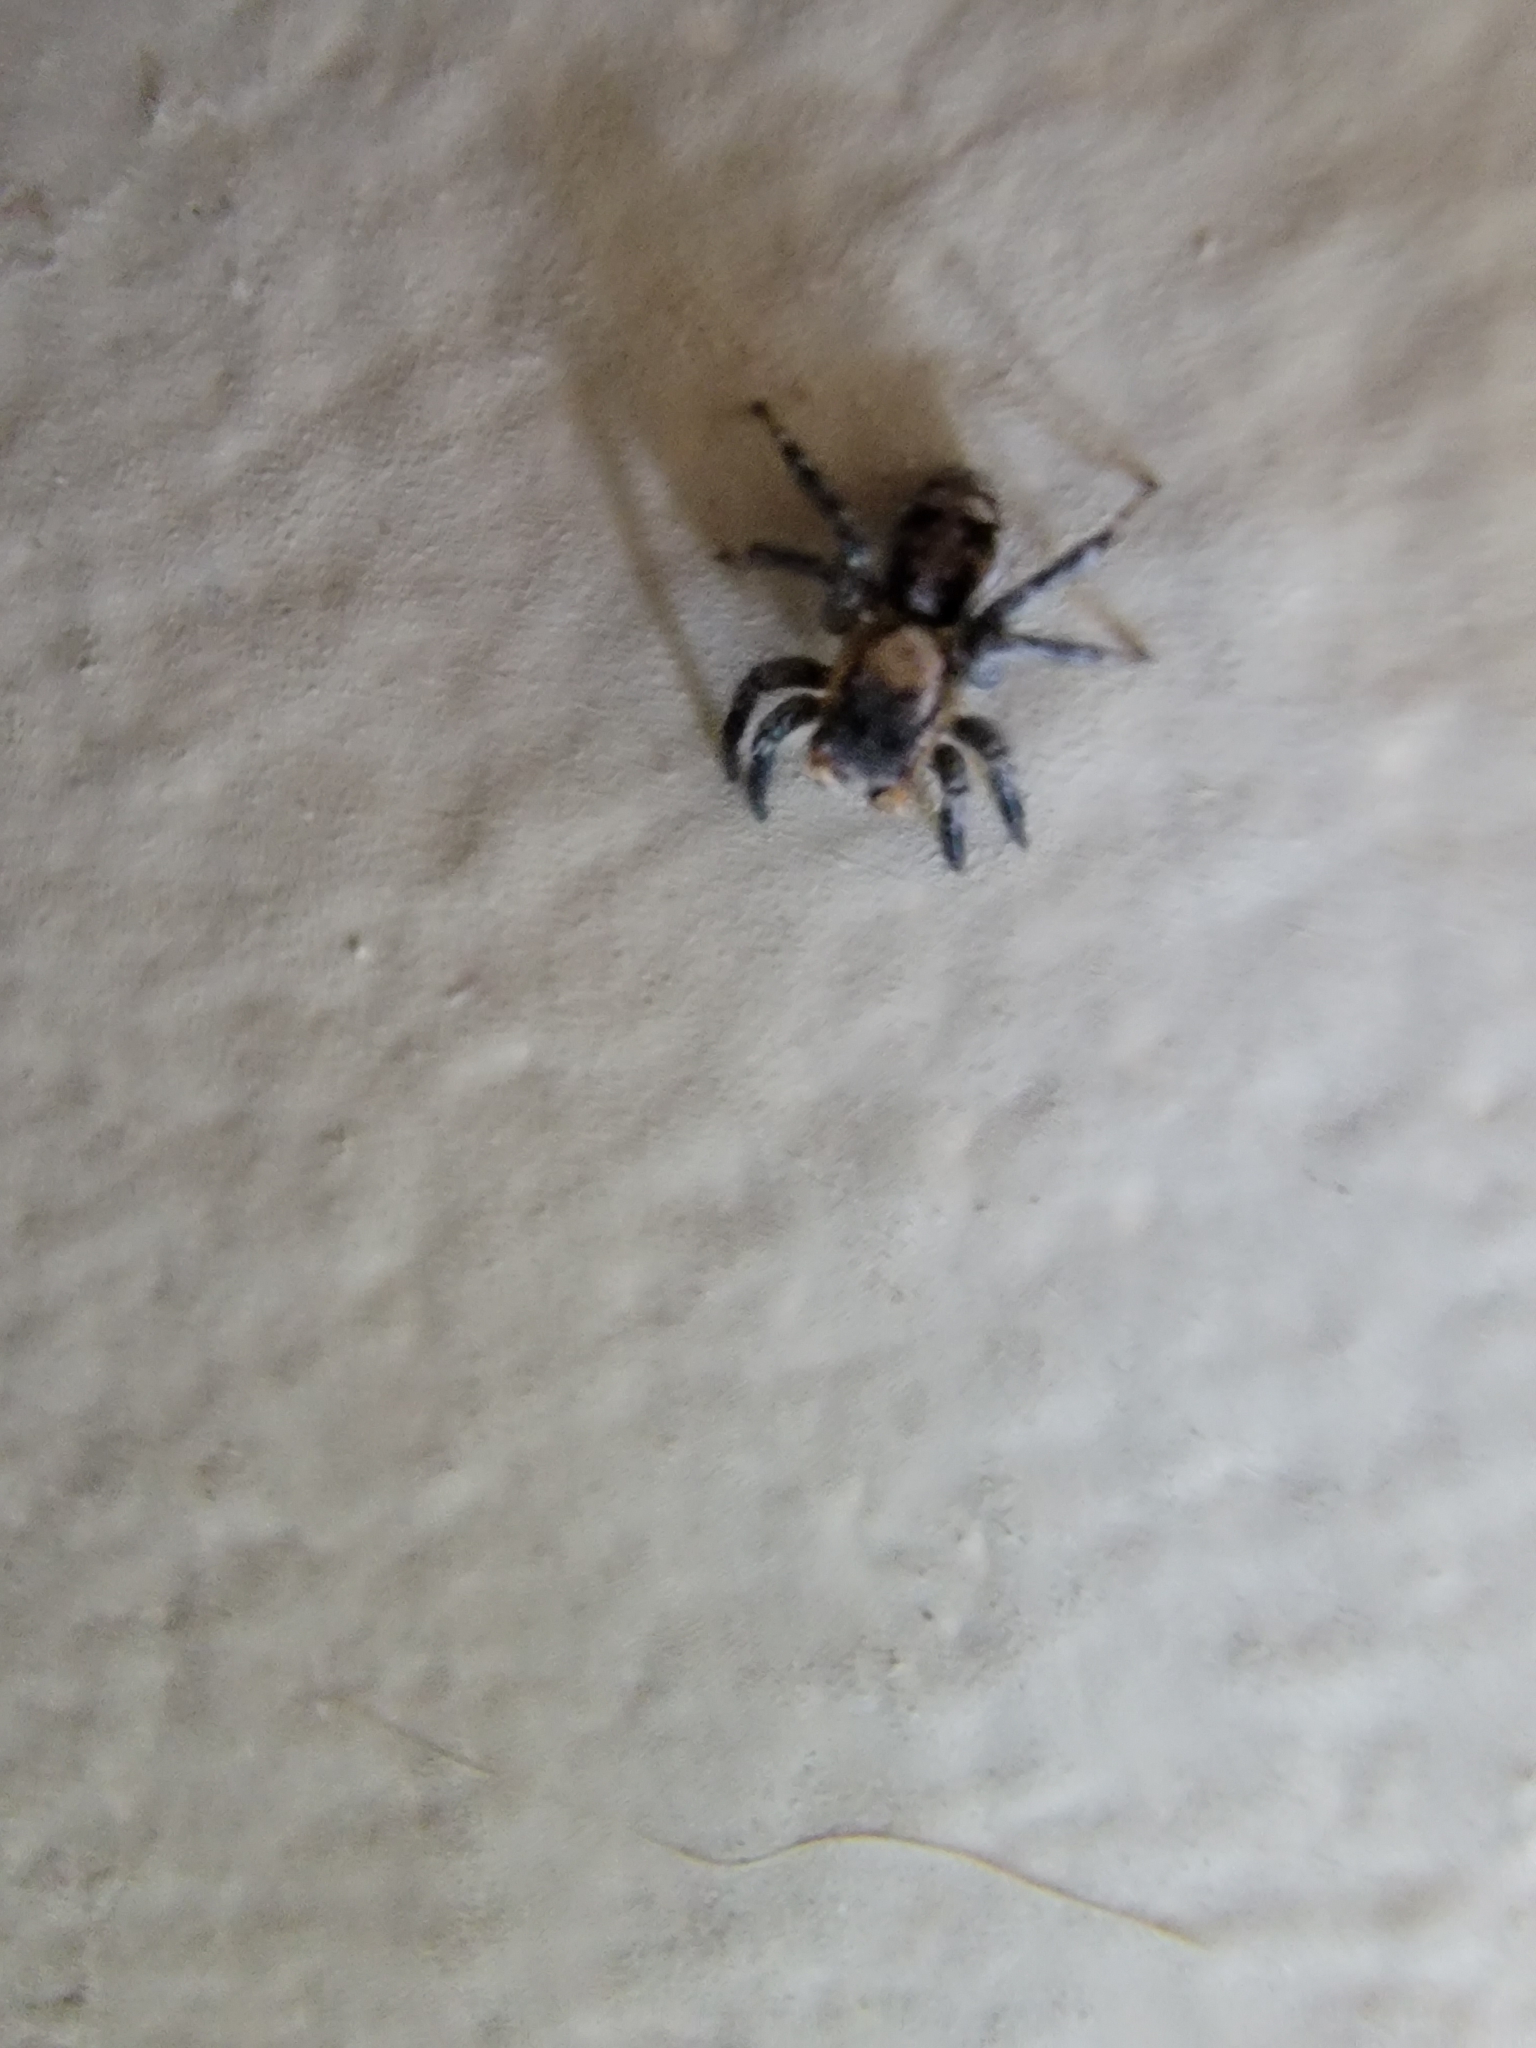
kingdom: Animalia
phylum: Arthropoda
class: Arachnida
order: Araneae
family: Salticidae
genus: Naphrys
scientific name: Naphrys pulex
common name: Flea jumping spider
